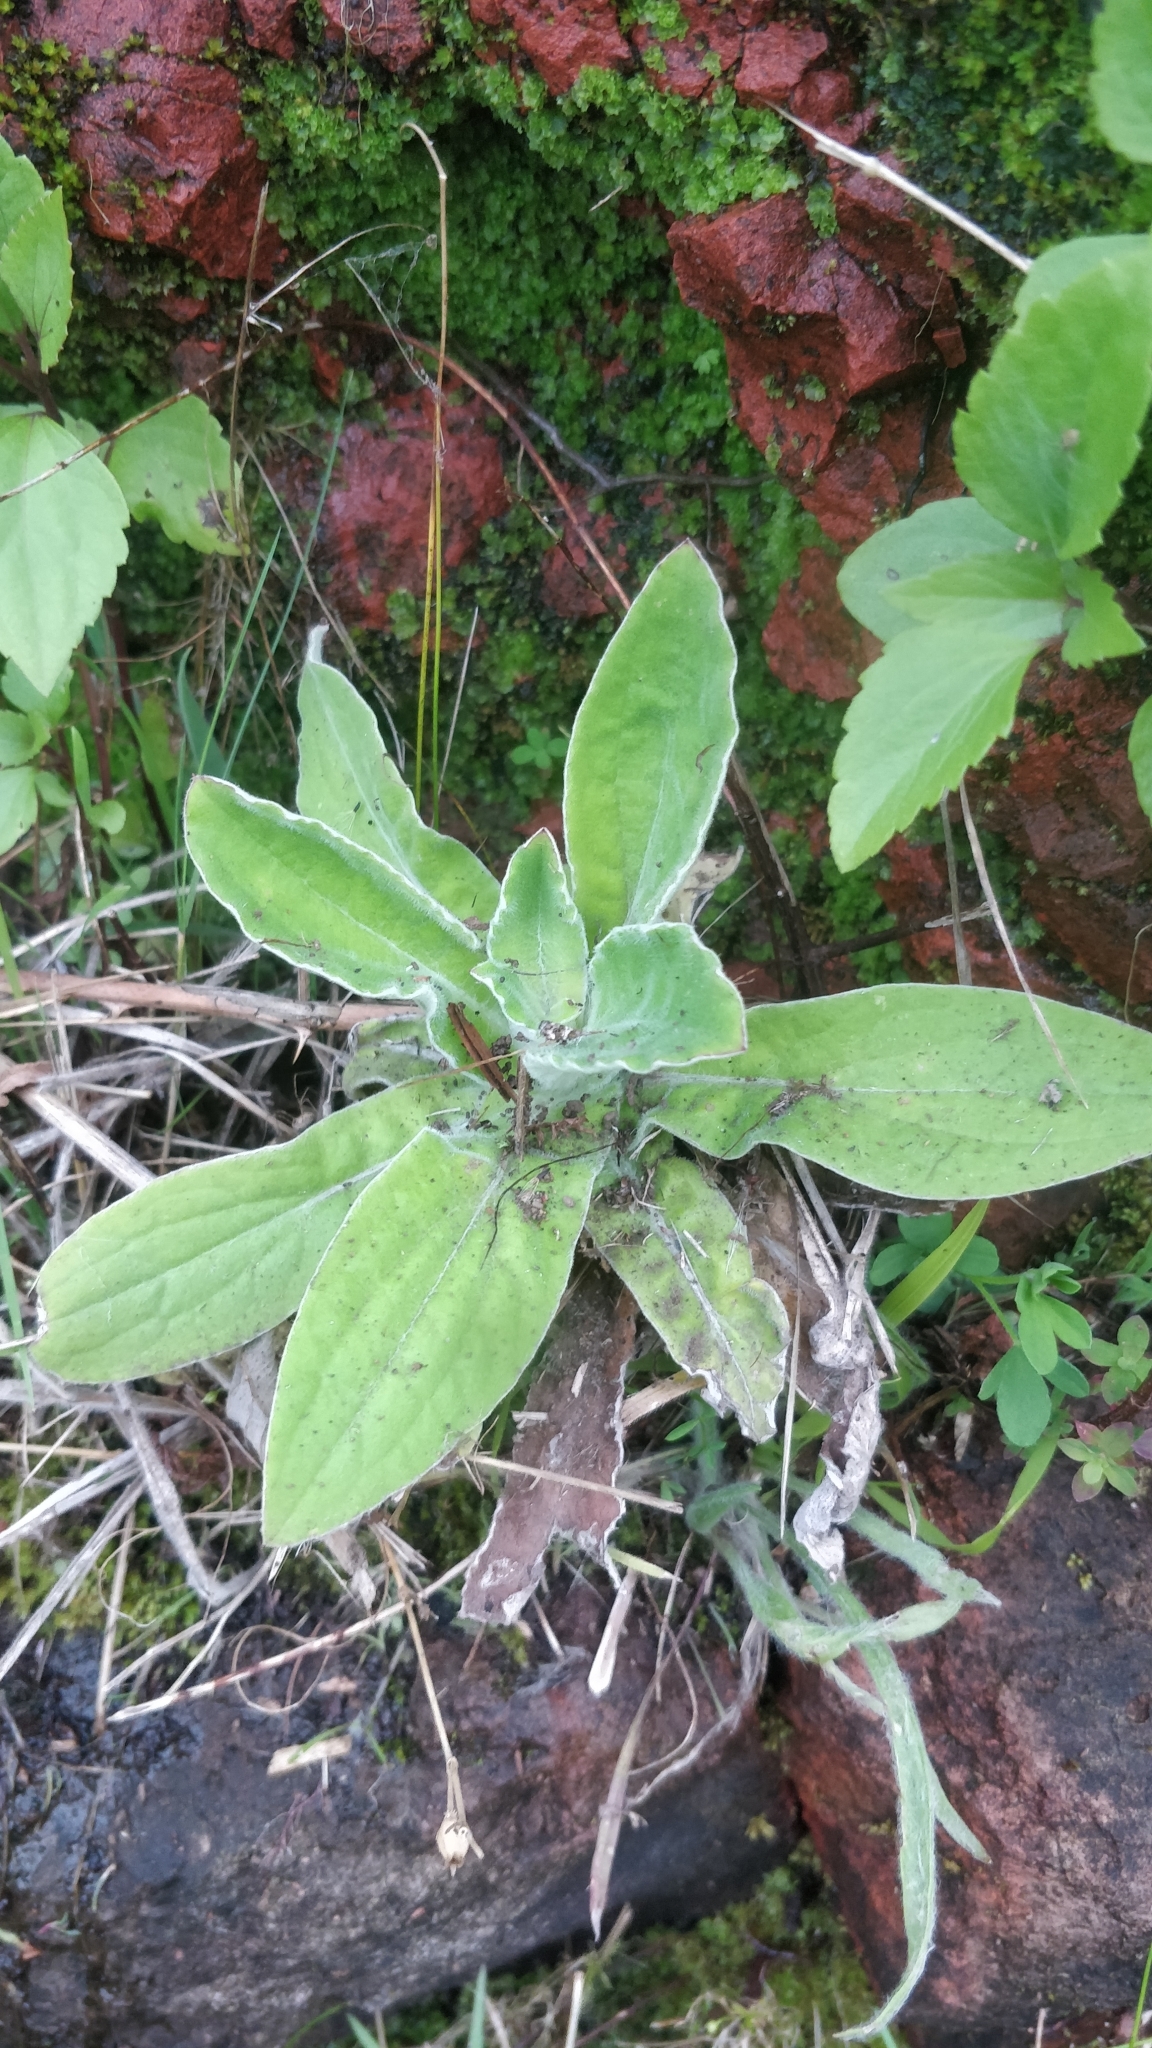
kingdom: Plantae
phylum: Tracheophyta
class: Magnoliopsida
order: Asterales
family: Asteraceae
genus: Helichrysum
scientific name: Helichrysum foetidum
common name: Stinking everlasting
